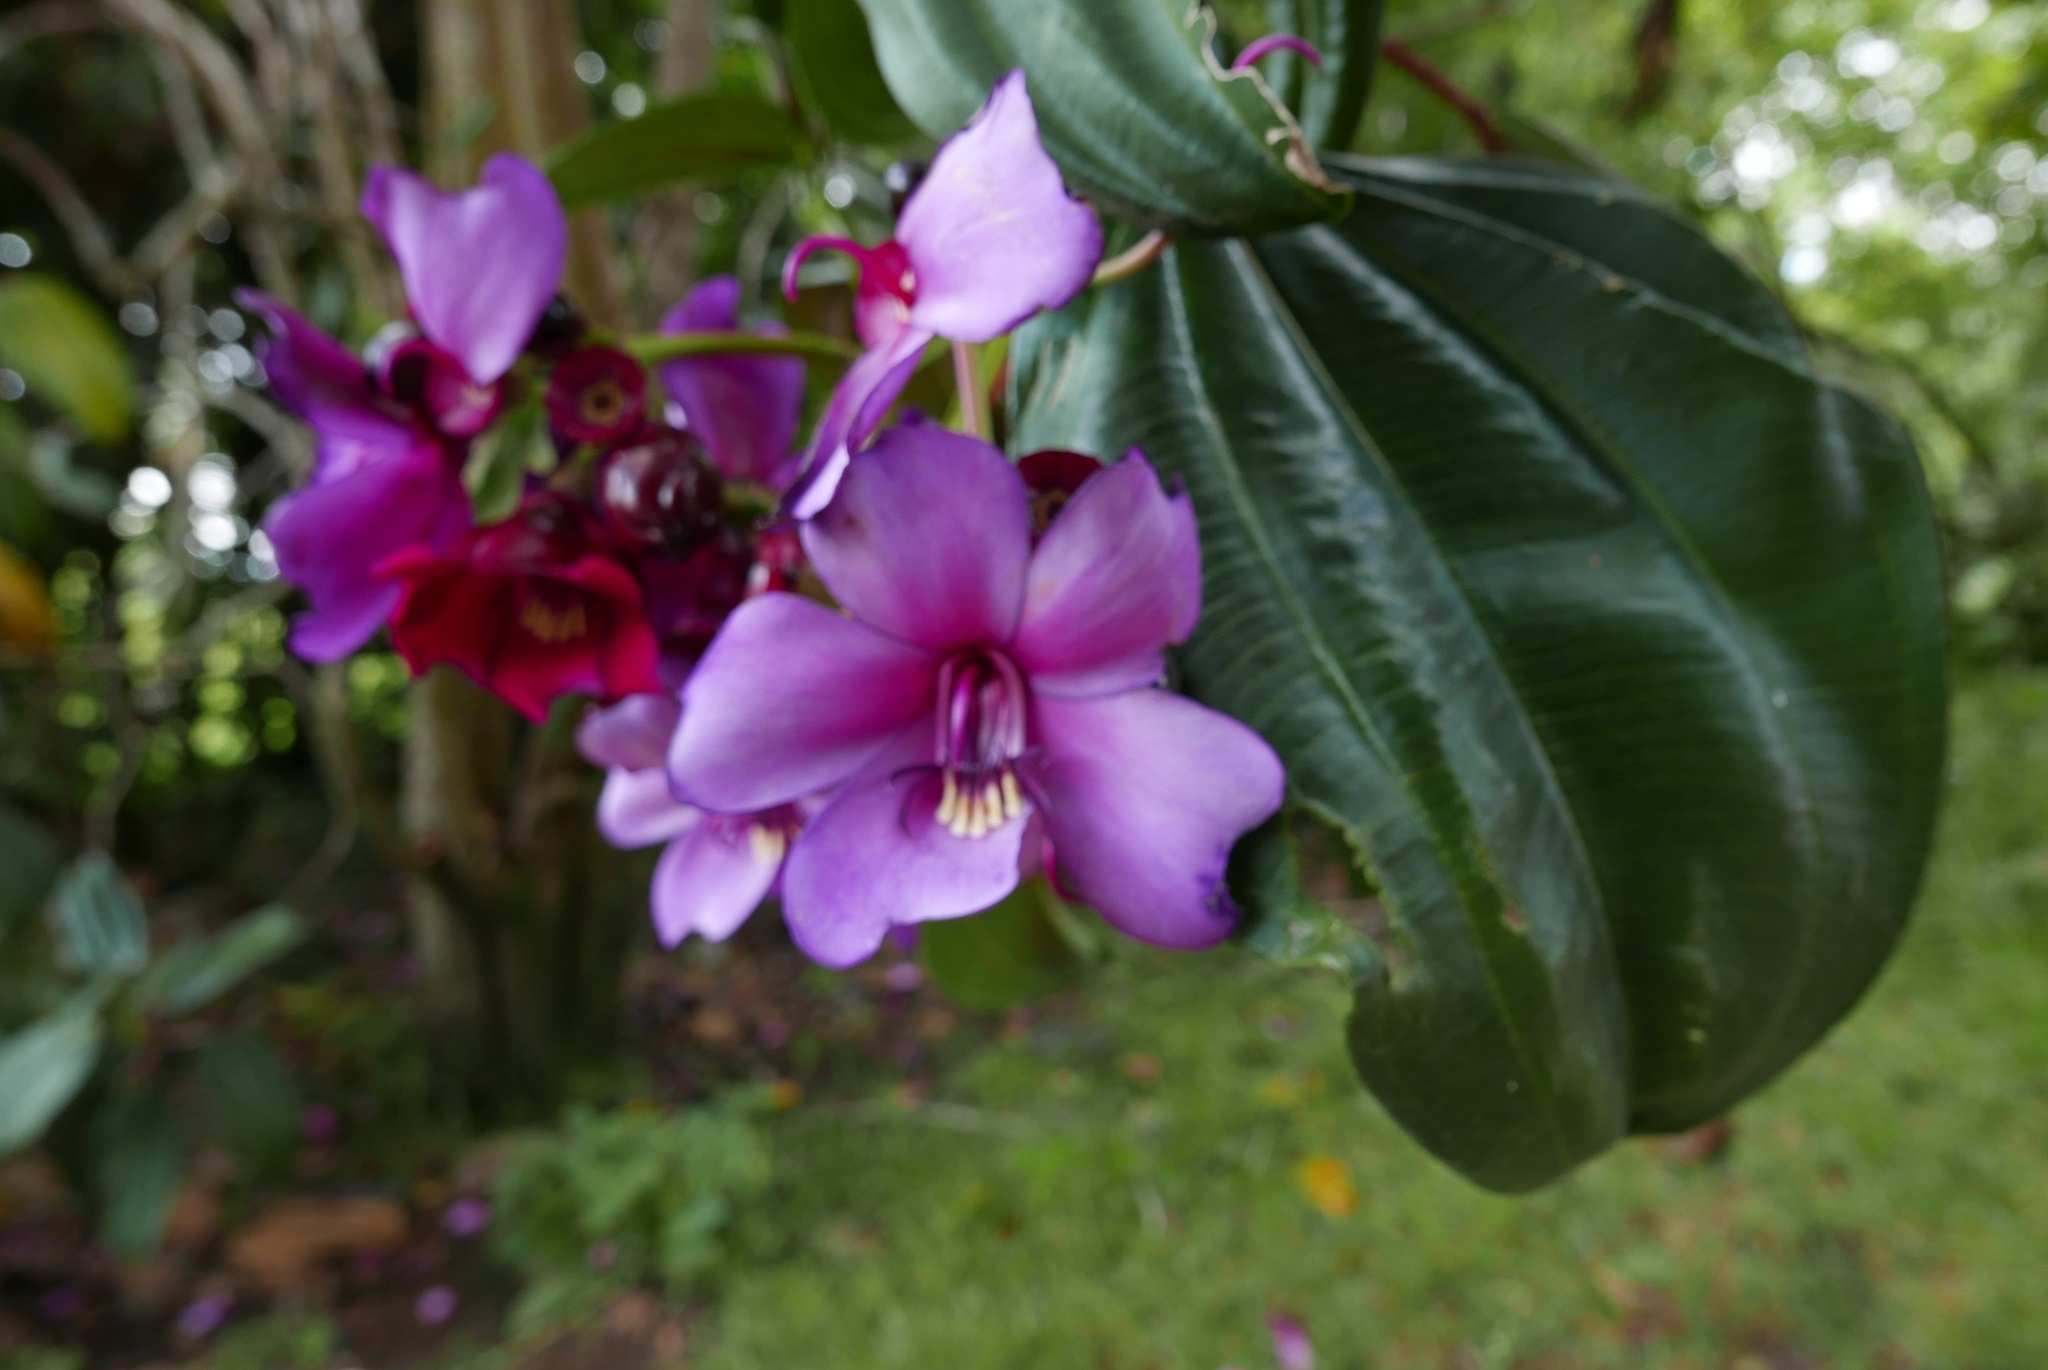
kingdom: Plantae
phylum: Tracheophyta
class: Magnoliopsida
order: Myrtales
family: Melastomataceae
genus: Meriania
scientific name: Meriania nobilis
